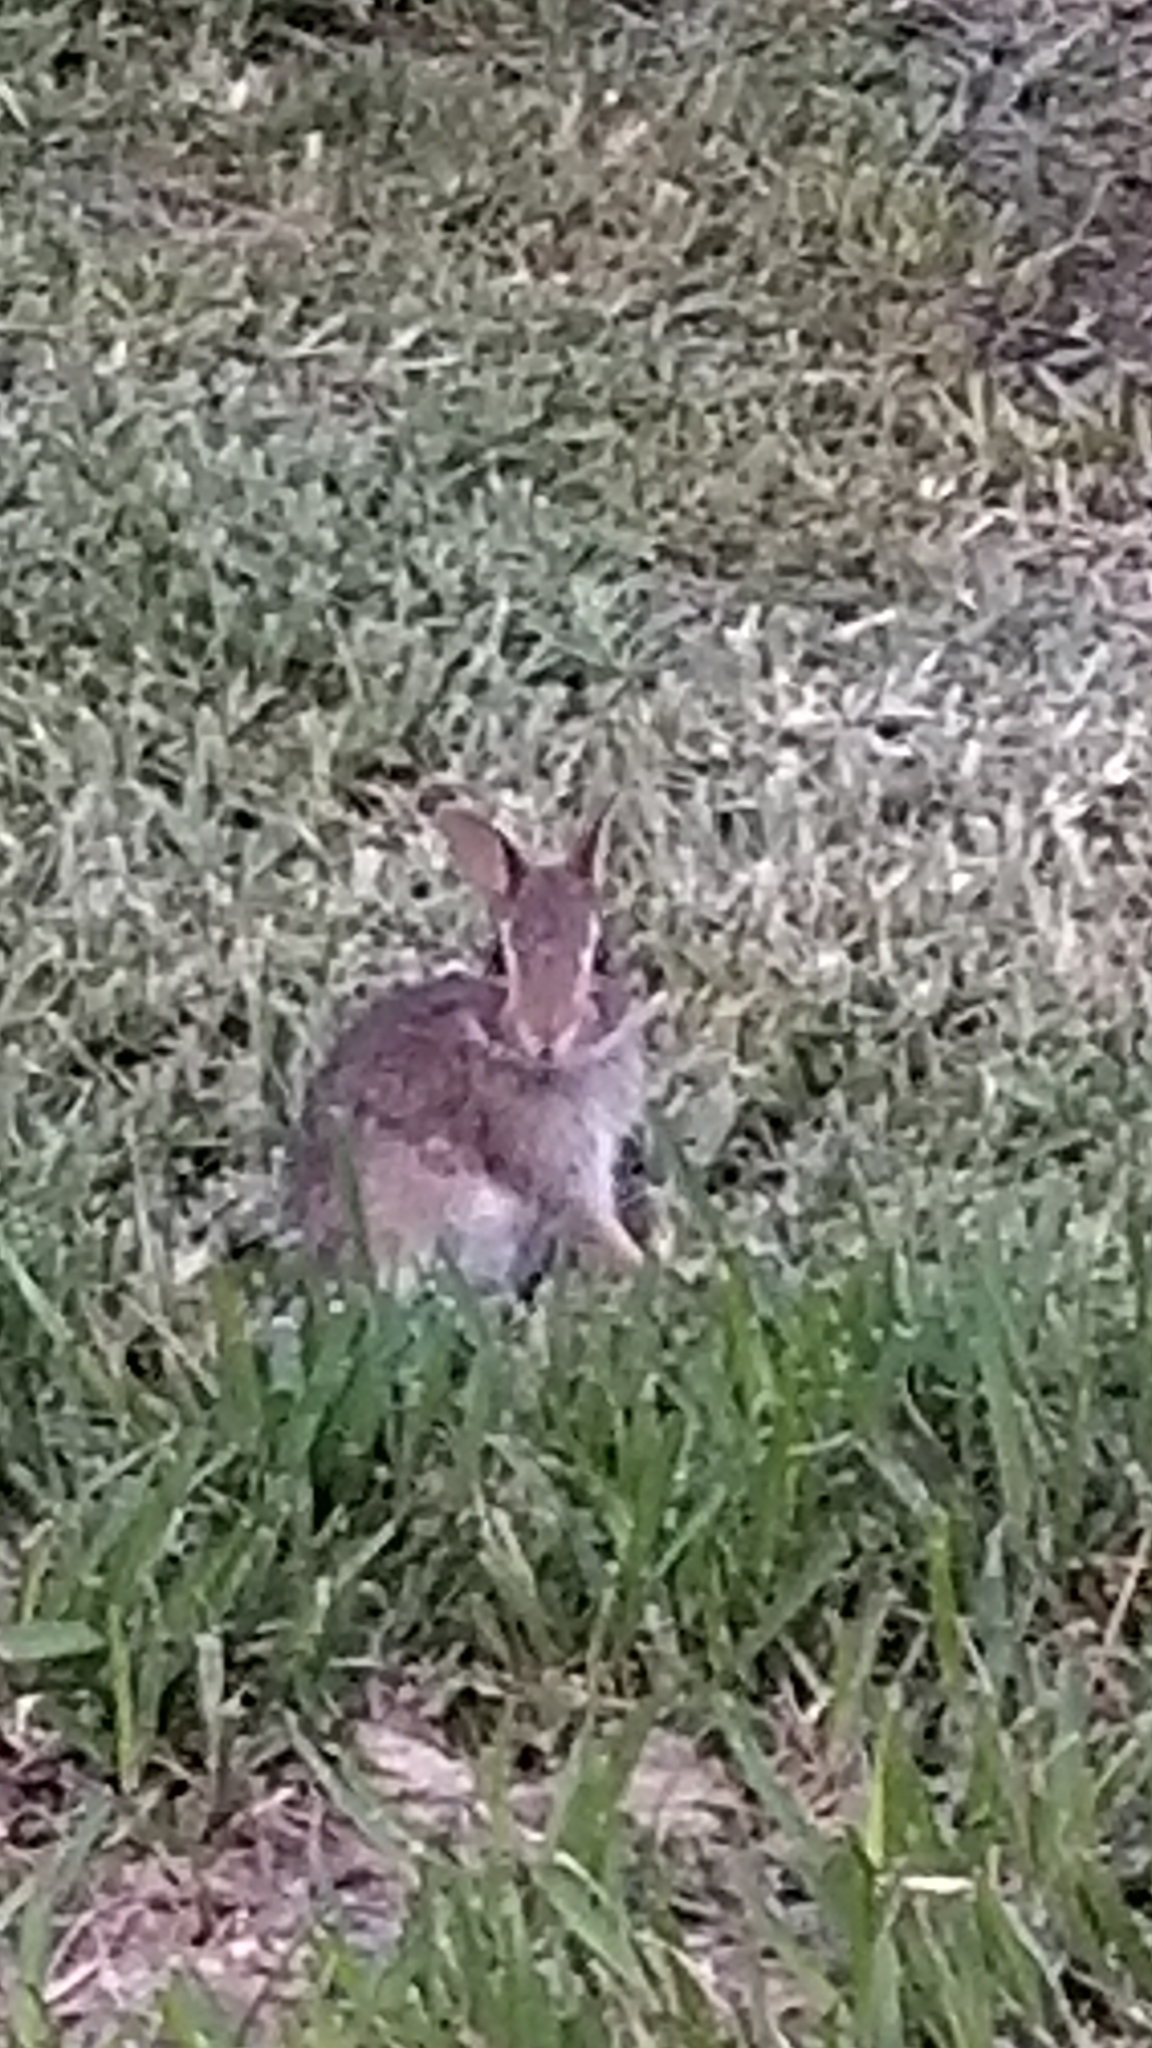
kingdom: Animalia
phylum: Chordata
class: Mammalia
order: Lagomorpha
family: Leporidae
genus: Sylvilagus
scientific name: Sylvilagus floridanus
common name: Eastern cottontail
